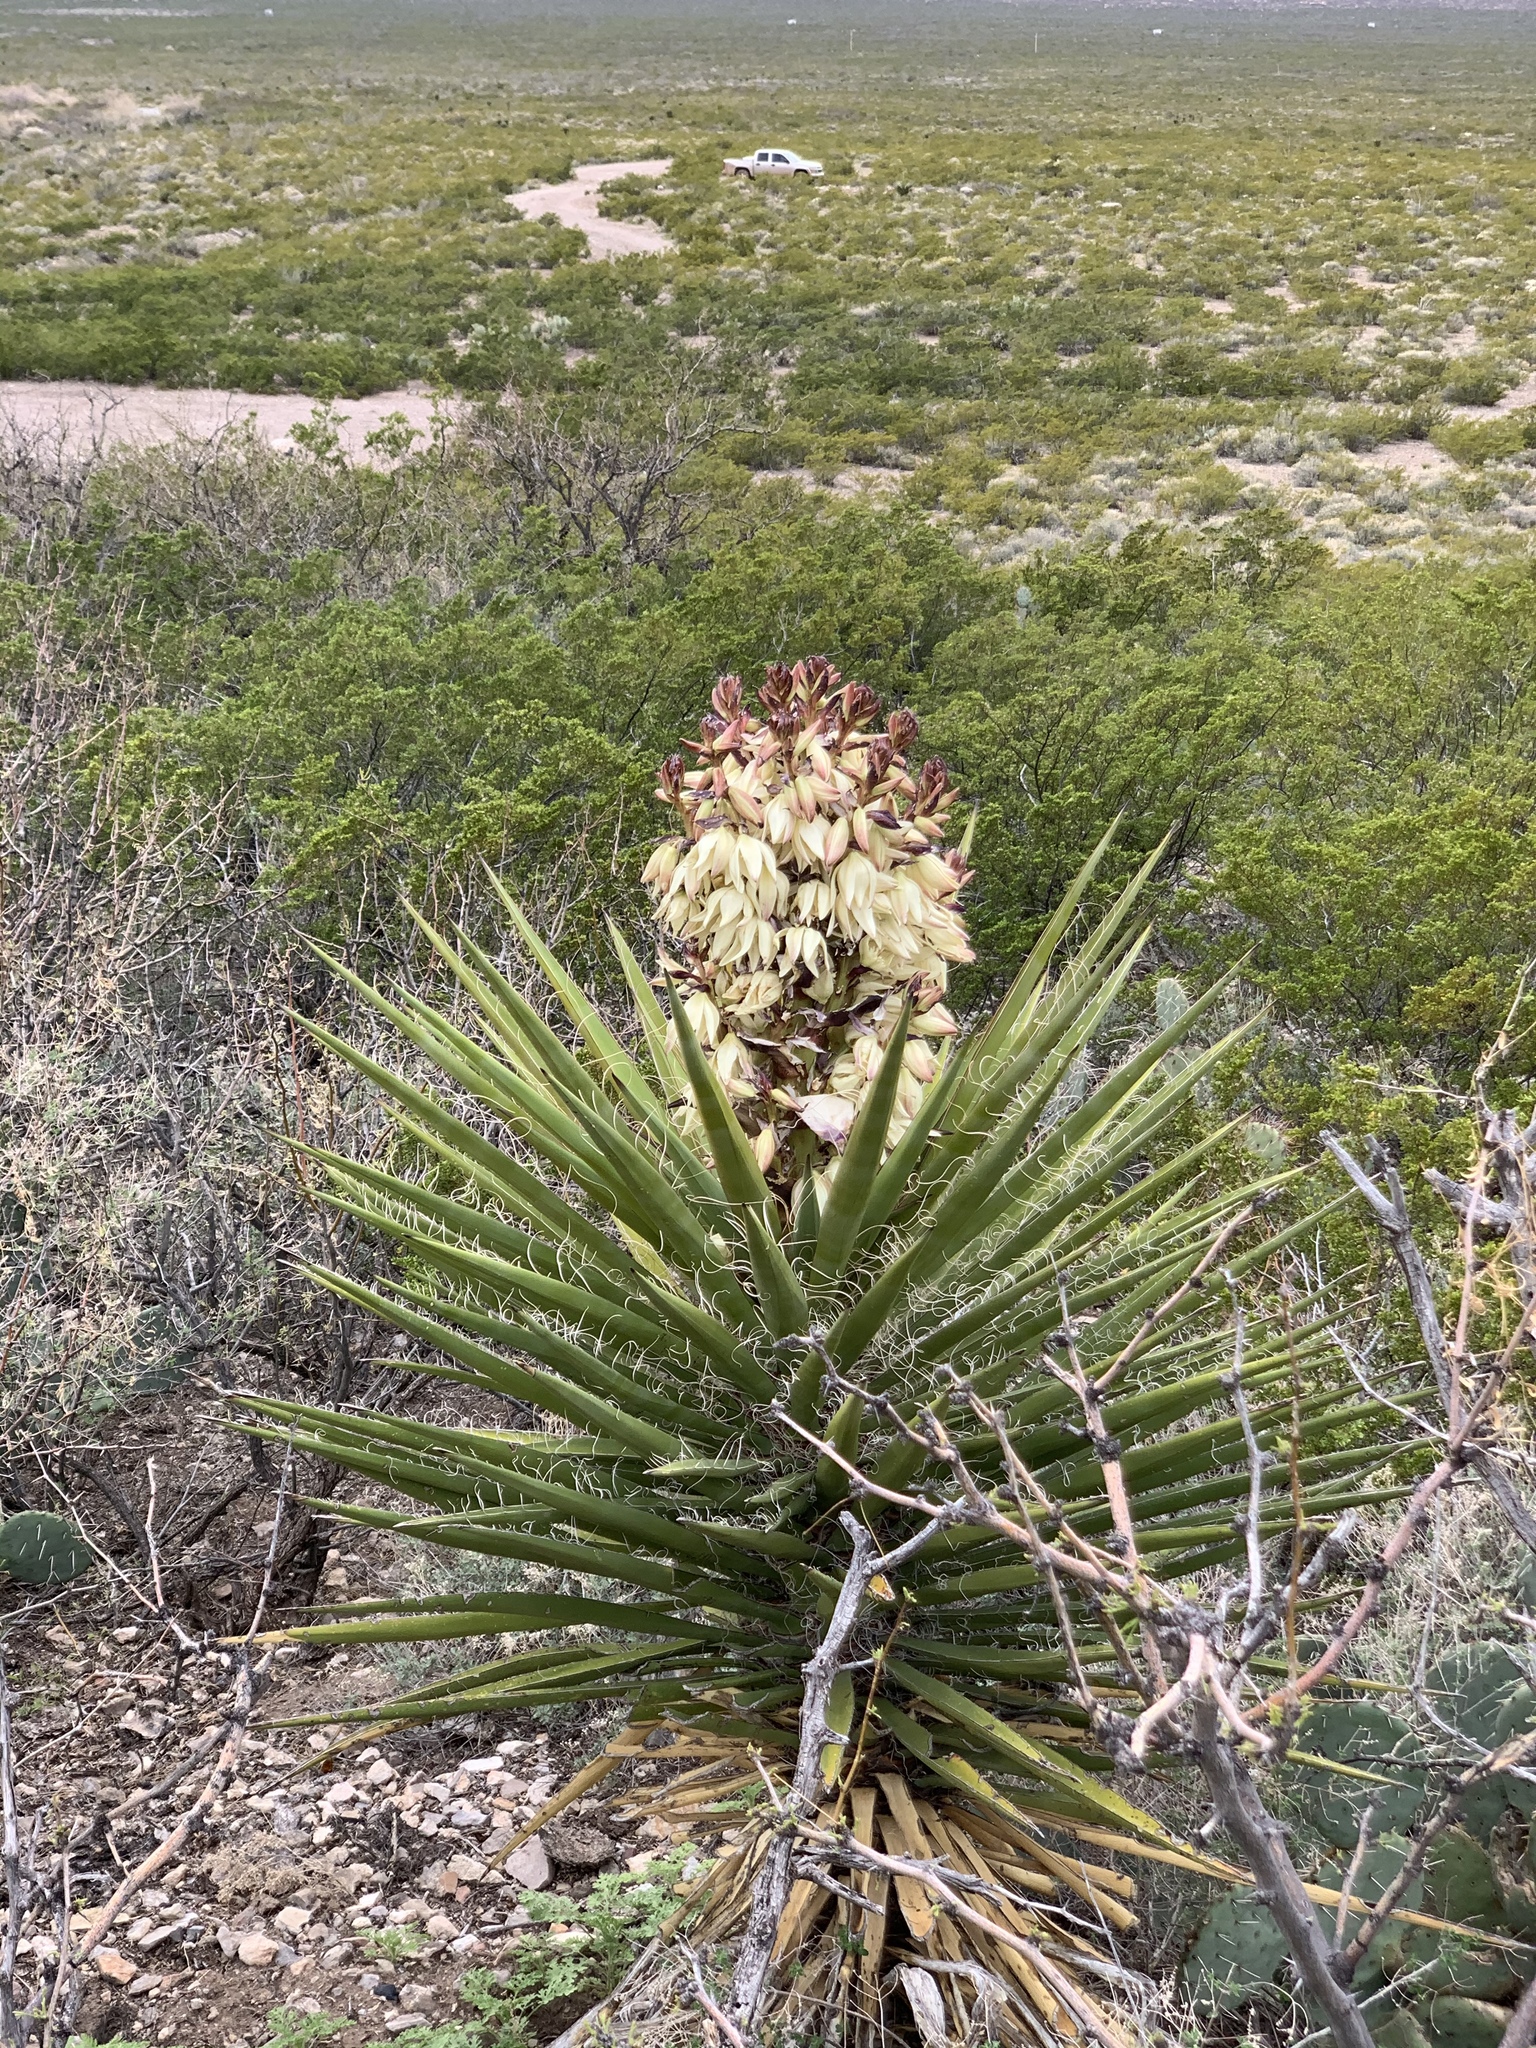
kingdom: Plantae
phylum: Tracheophyta
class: Liliopsida
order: Asparagales
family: Asparagaceae
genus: Yucca
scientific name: Yucca treculiana
